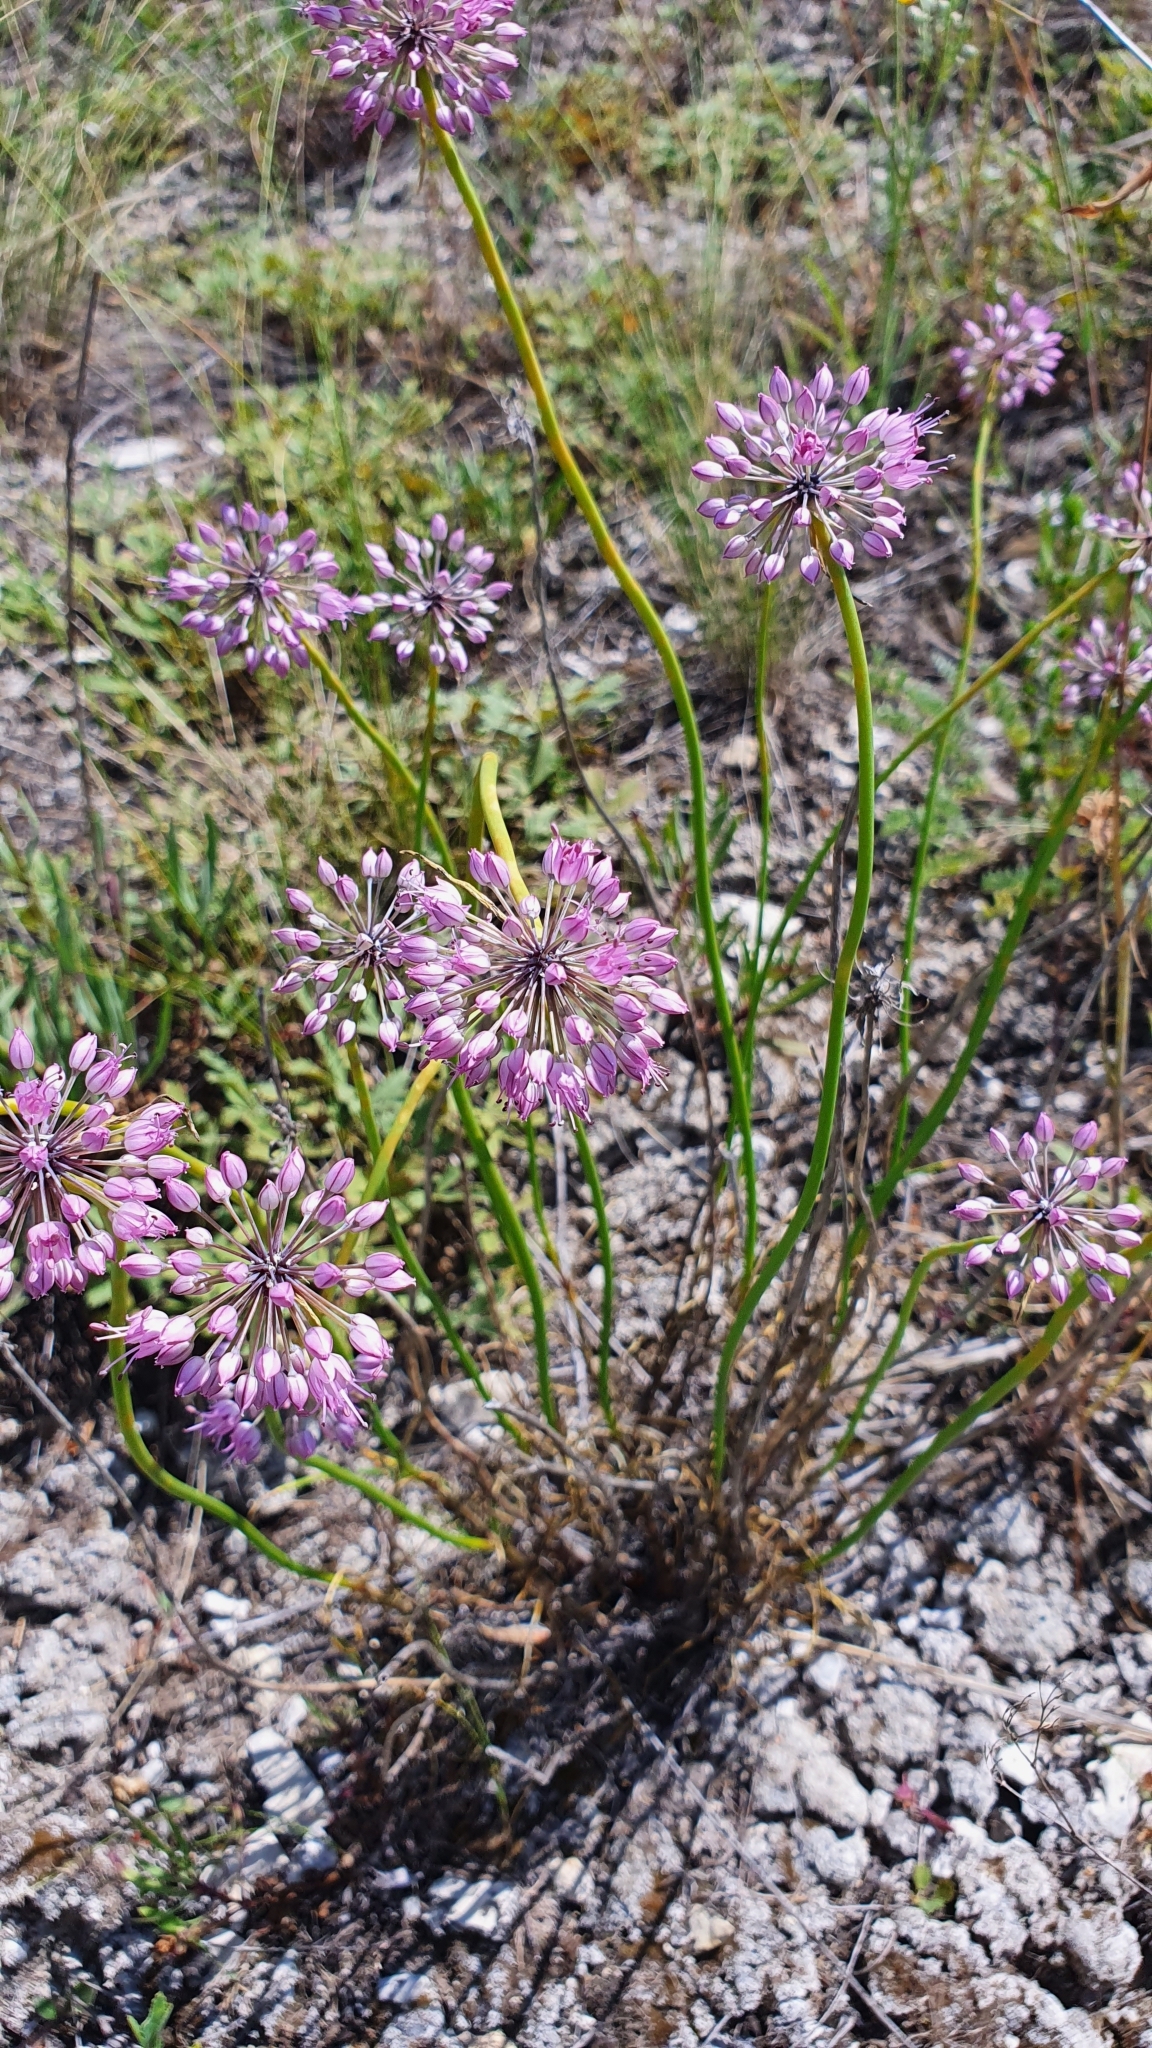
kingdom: Plantae
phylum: Tracheophyta
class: Liliopsida
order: Asparagales
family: Amaryllidaceae
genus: Allium
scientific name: Allium cretaceum
